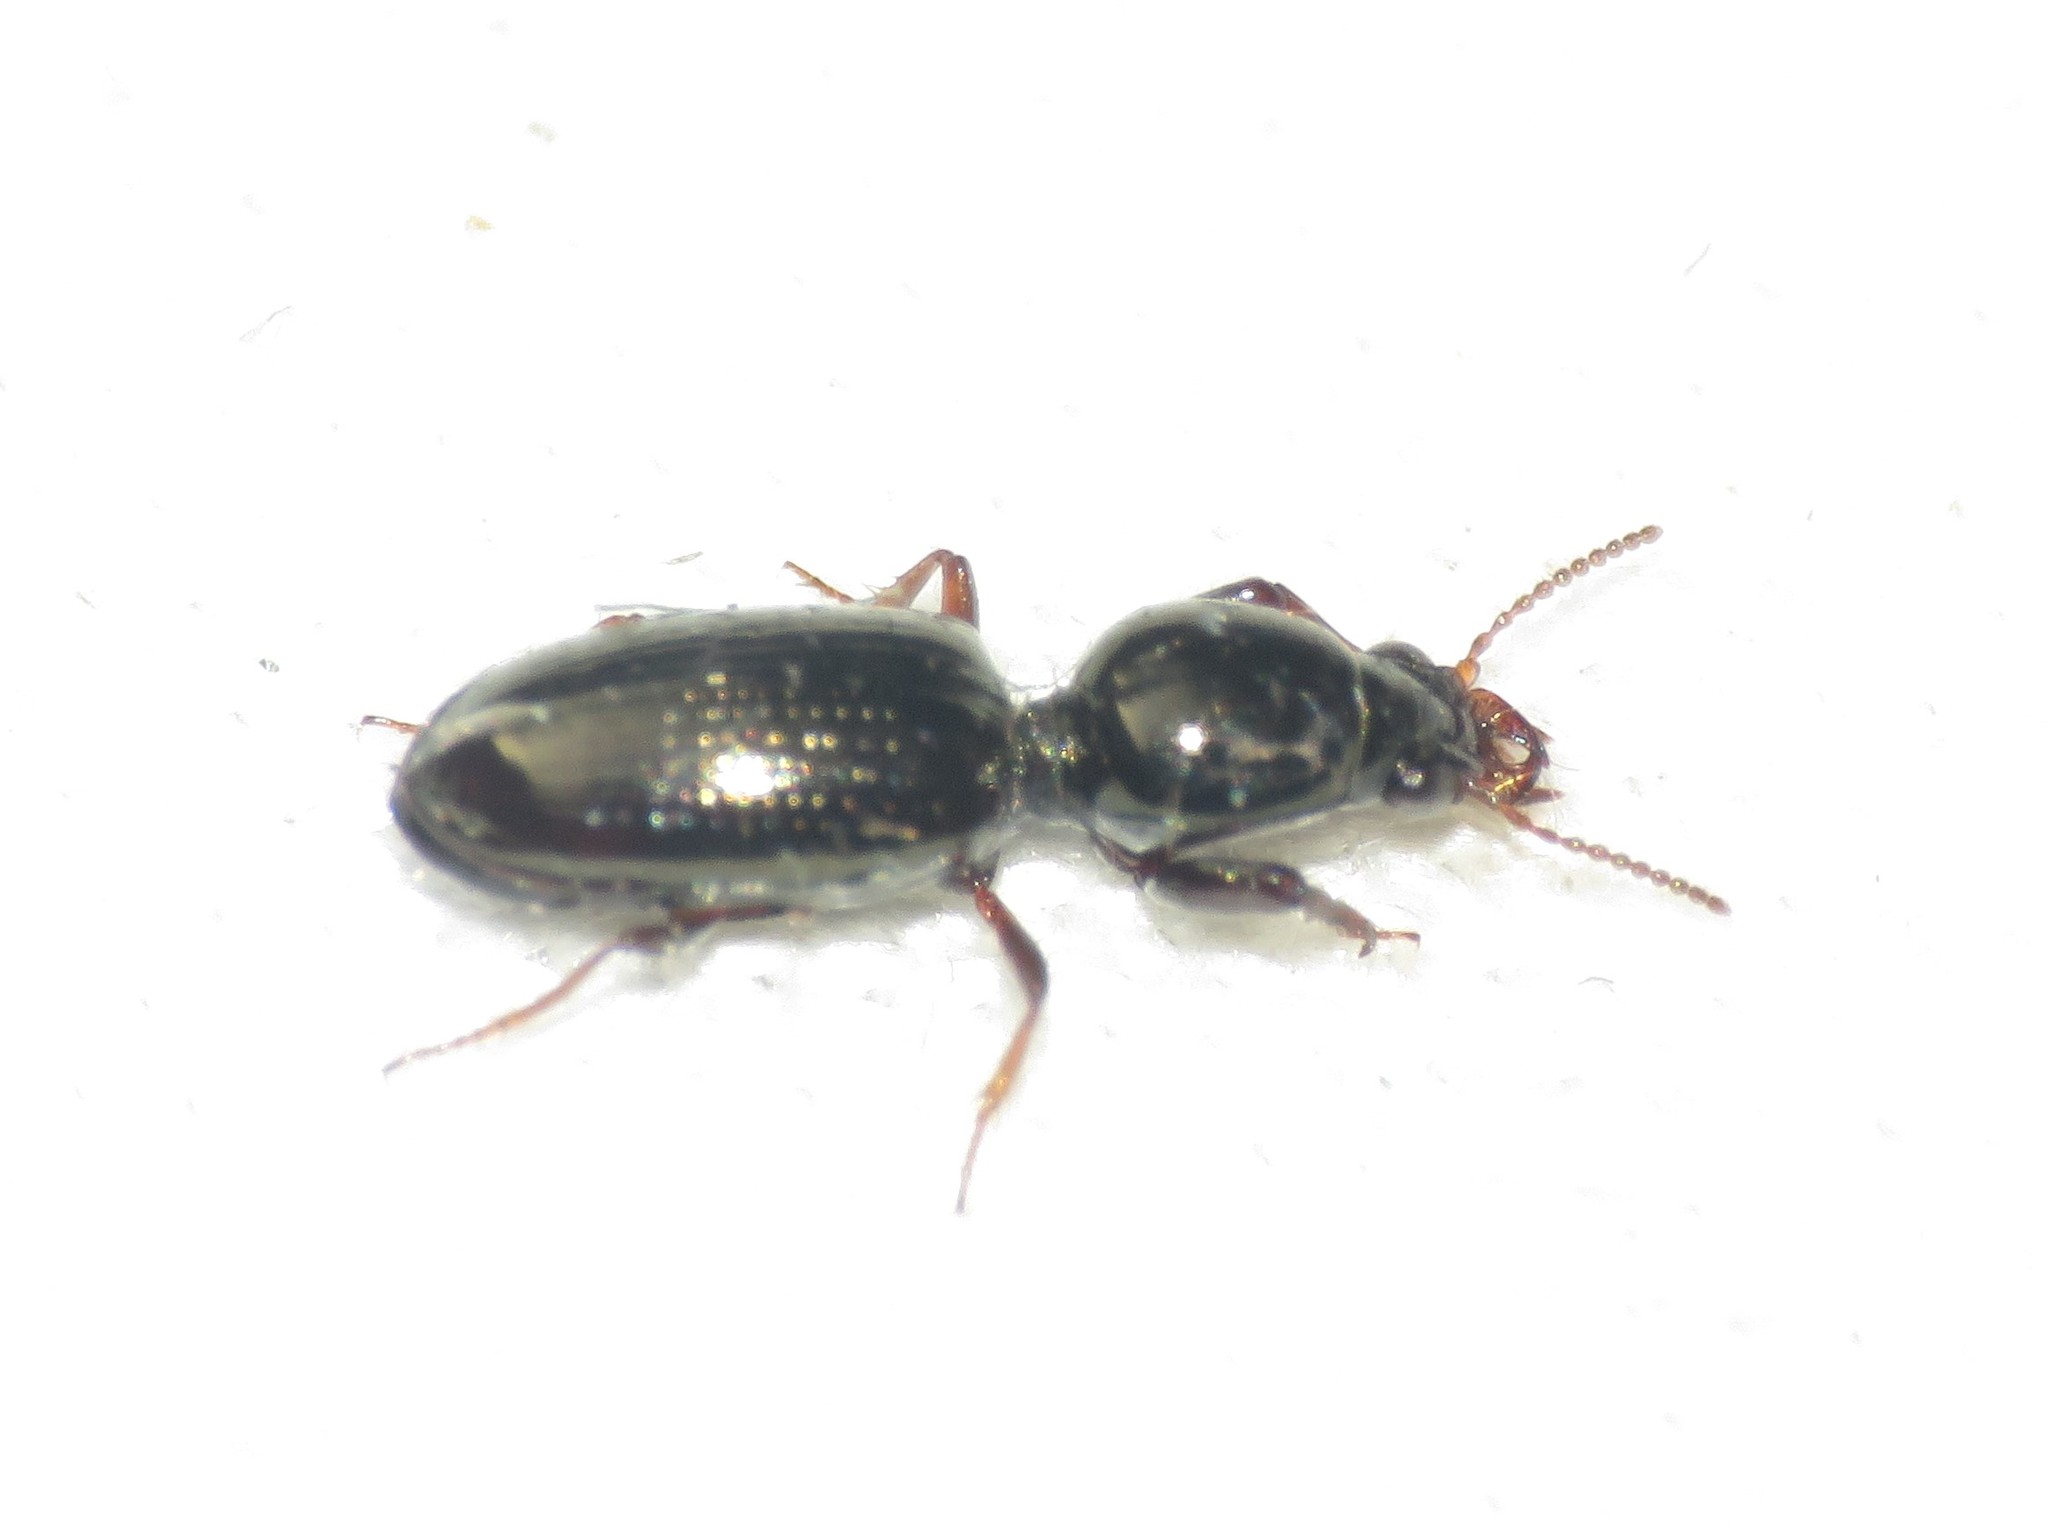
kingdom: Animalia
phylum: Arthropoda
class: Insecta
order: Coleoptera
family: Carabidae
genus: Dyschirius
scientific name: Dyschirius sphaericollis
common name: Round-necked discolored beetle
